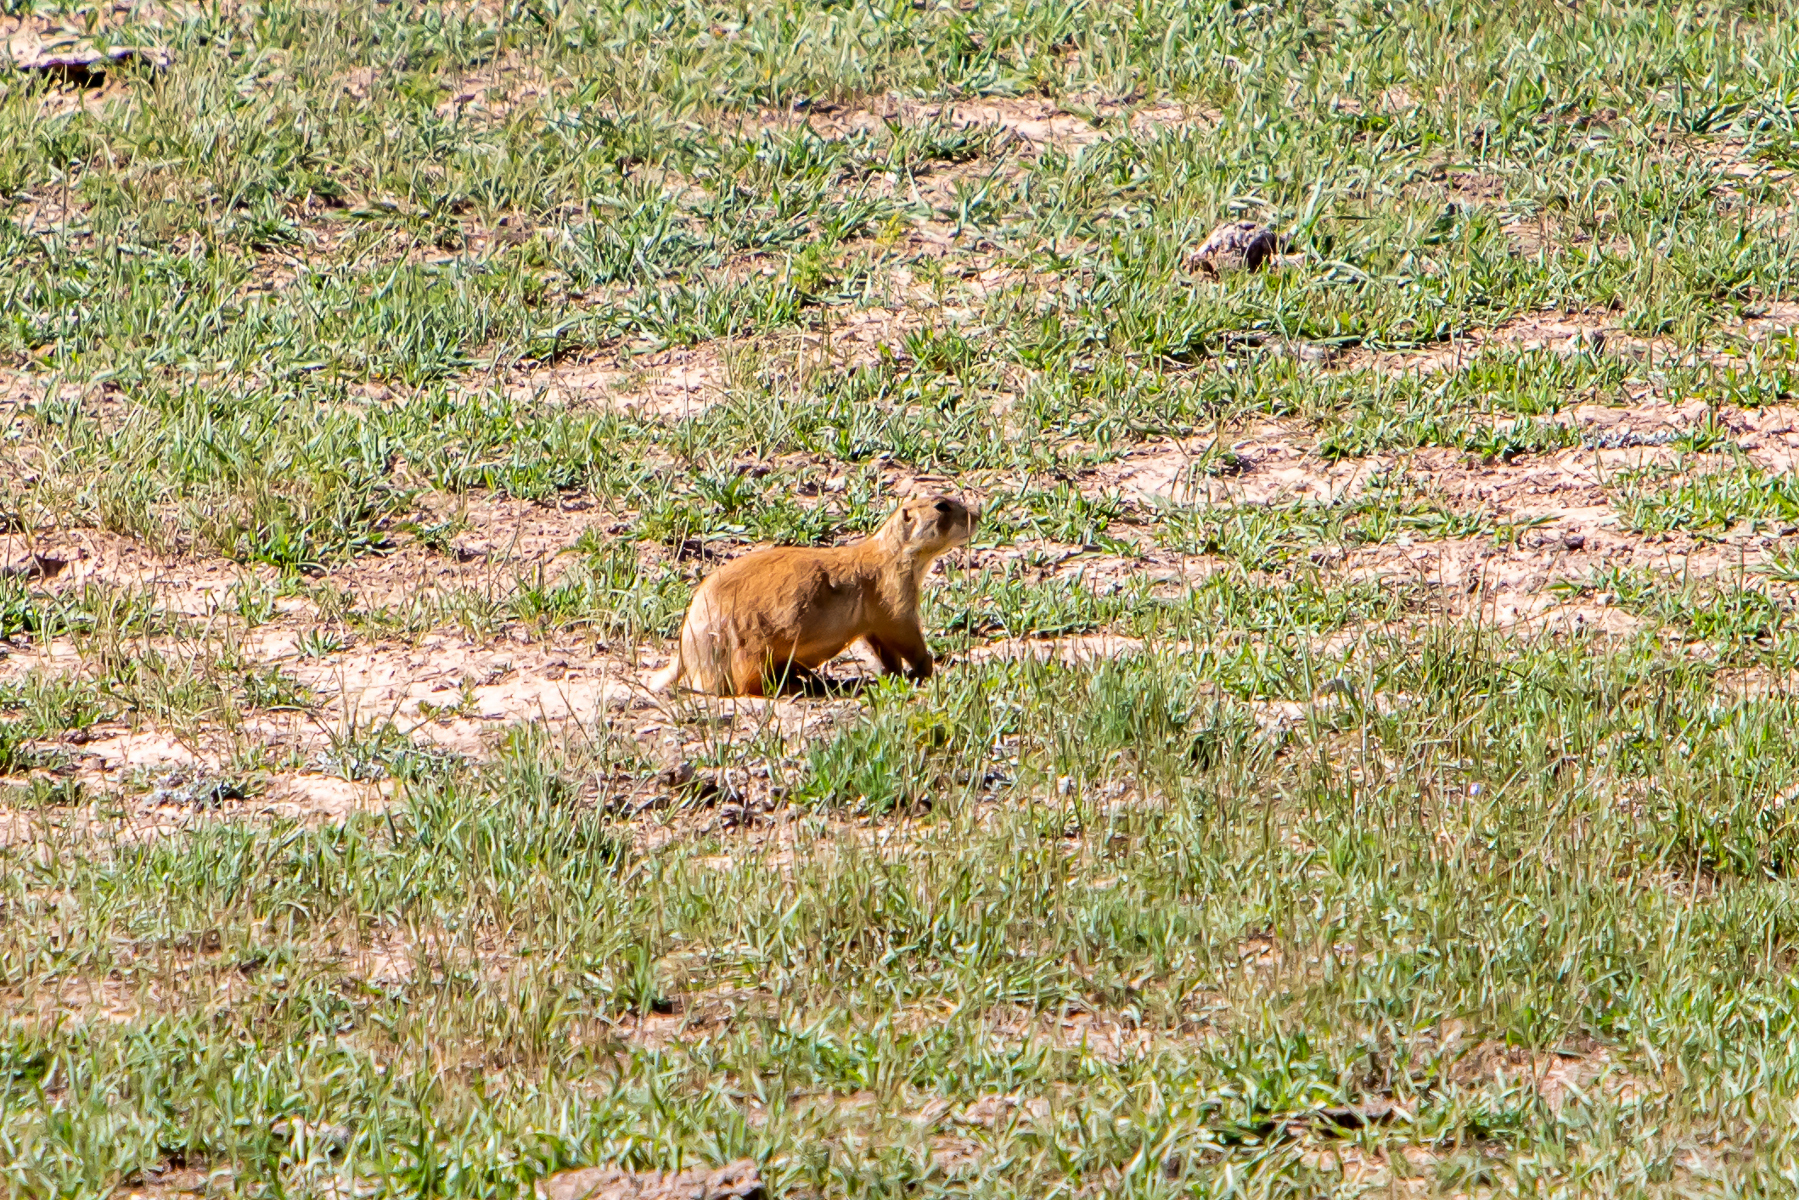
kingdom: Animalia
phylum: Chordata
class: Mammalia
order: Rodentia
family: Sciuridae
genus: Cynomys
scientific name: Cynomys parvidens
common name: Utah prairie dog
